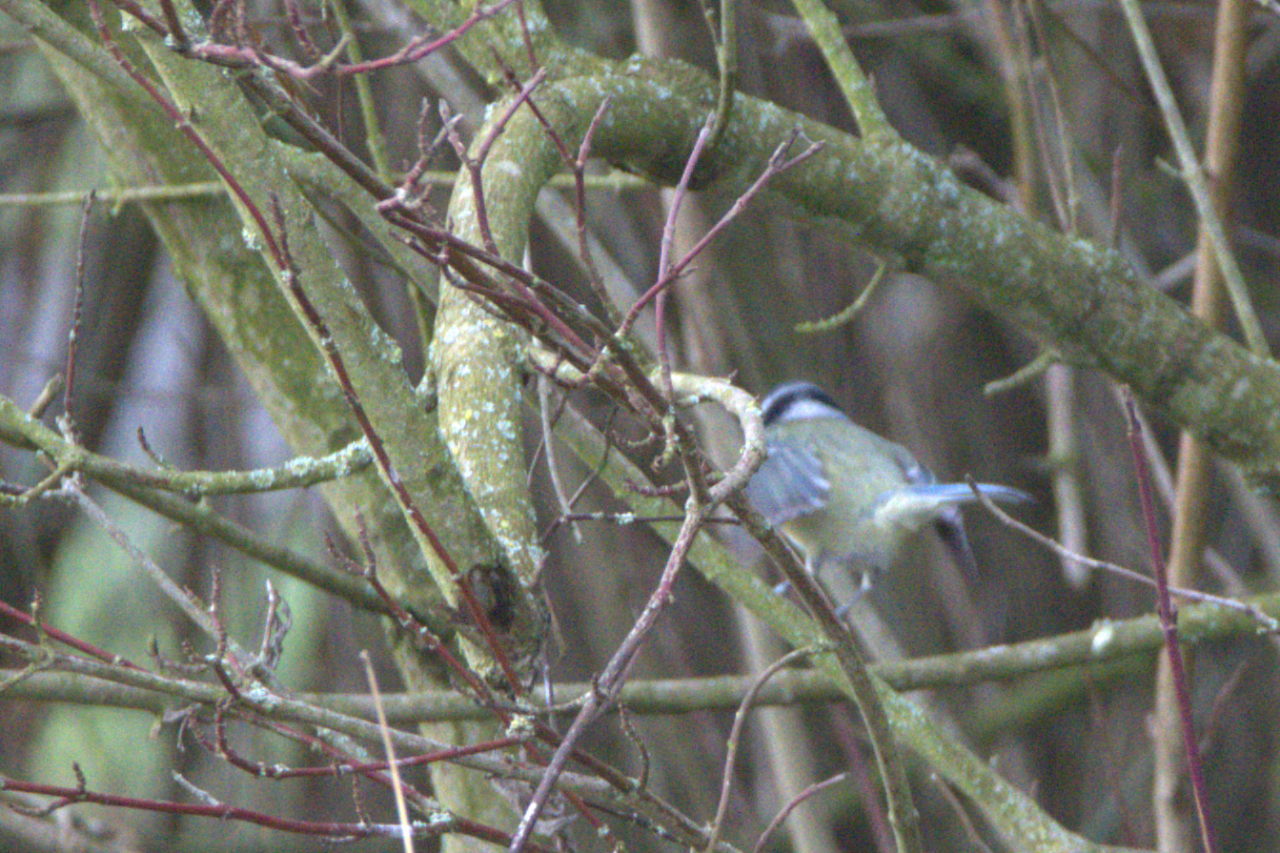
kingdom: Animalia
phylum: Chordata
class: Aves
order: Passeriformes
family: Paridae
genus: Cyanistes
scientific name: Cyanistes caeruleus
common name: Eurasian blue tit
